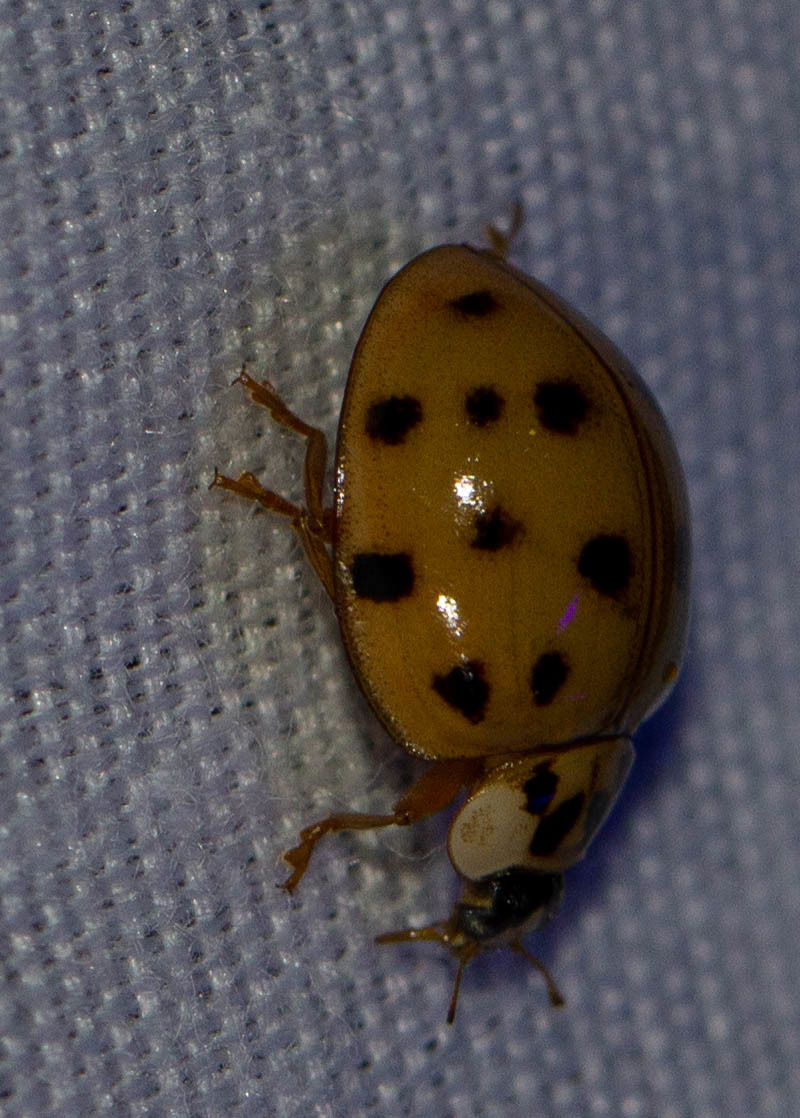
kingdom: Animalia
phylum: Arthropoda
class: Insecta
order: Coleoptera
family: Coccinellidae
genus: Harmonia
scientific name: Harmonia axyridis
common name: Harlequin ladybird
